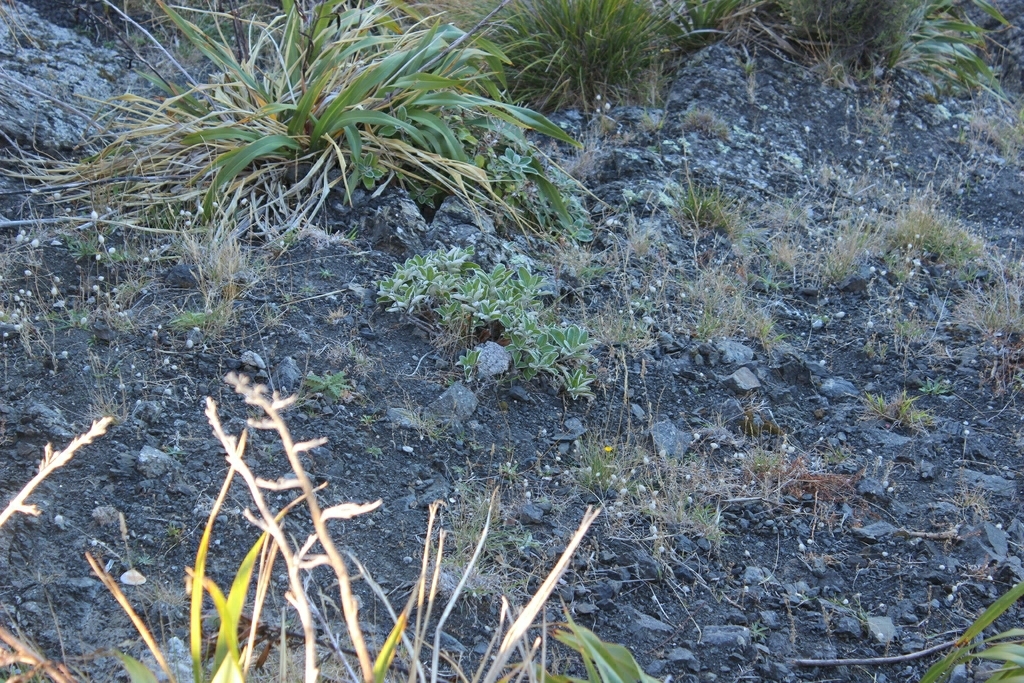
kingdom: Plantae
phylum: Tracheophyta
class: Magnoliopsida
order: Asterales
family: Asteraceae
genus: Brachyglottis
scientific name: Brachyglottis greyi
